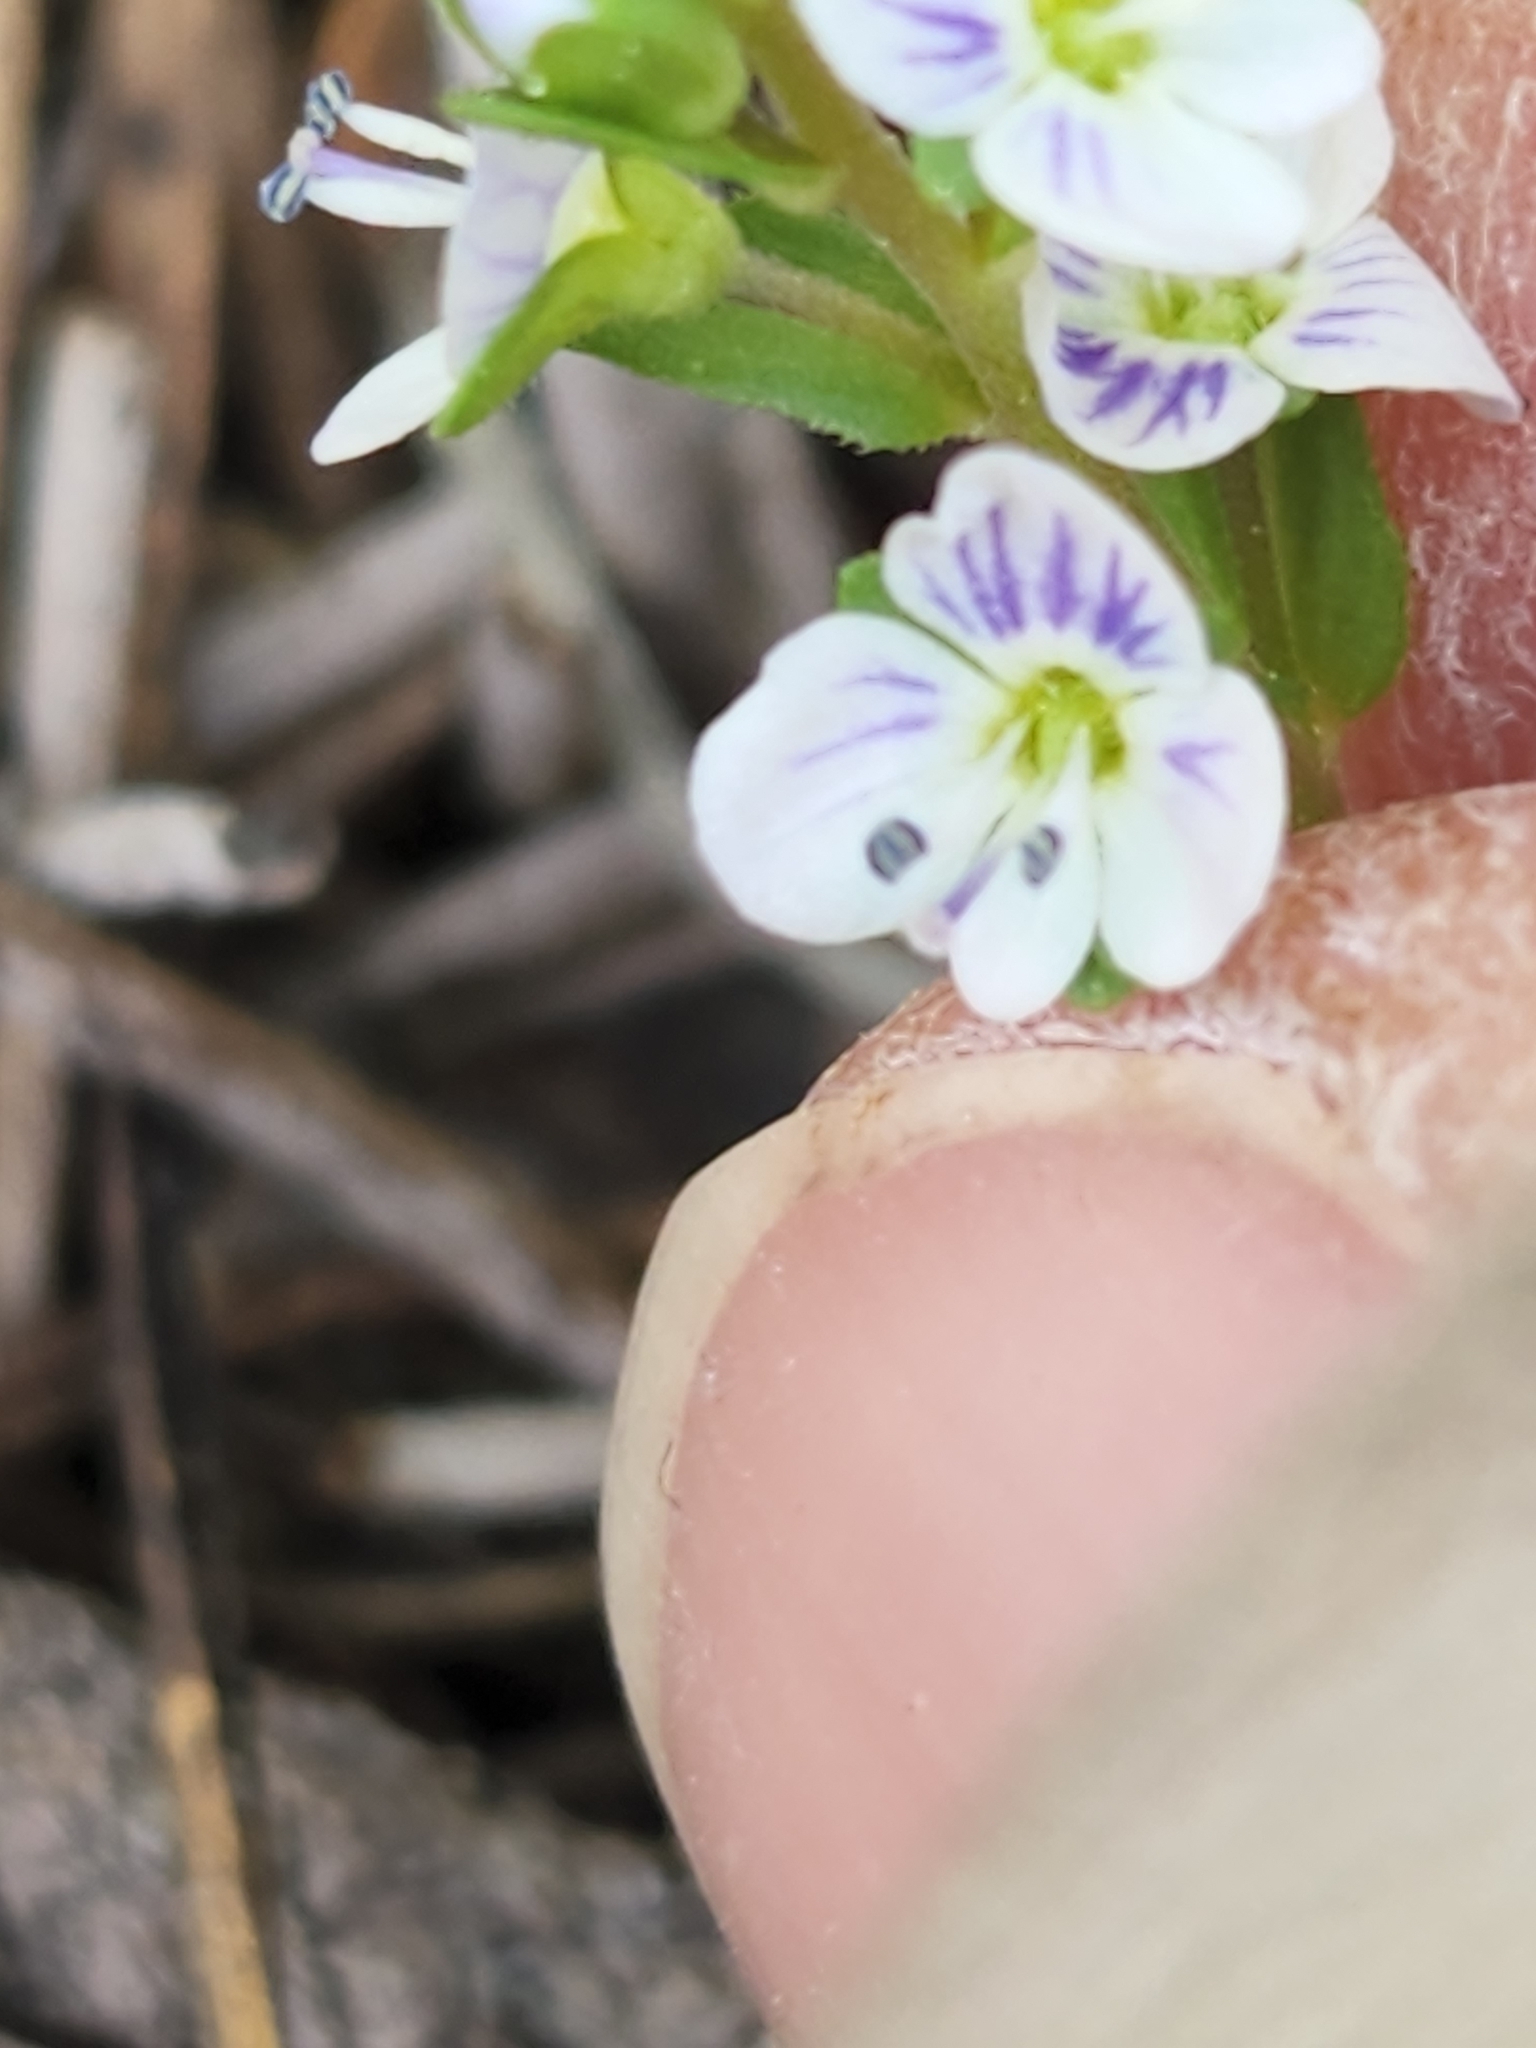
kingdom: Plantae
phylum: Tracheophyta
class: Magnoliopsida
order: Lamiales
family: Plantaginaceae
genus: Veronica
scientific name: Veronica serpyllifolia
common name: Thyme-leaved speedwell
